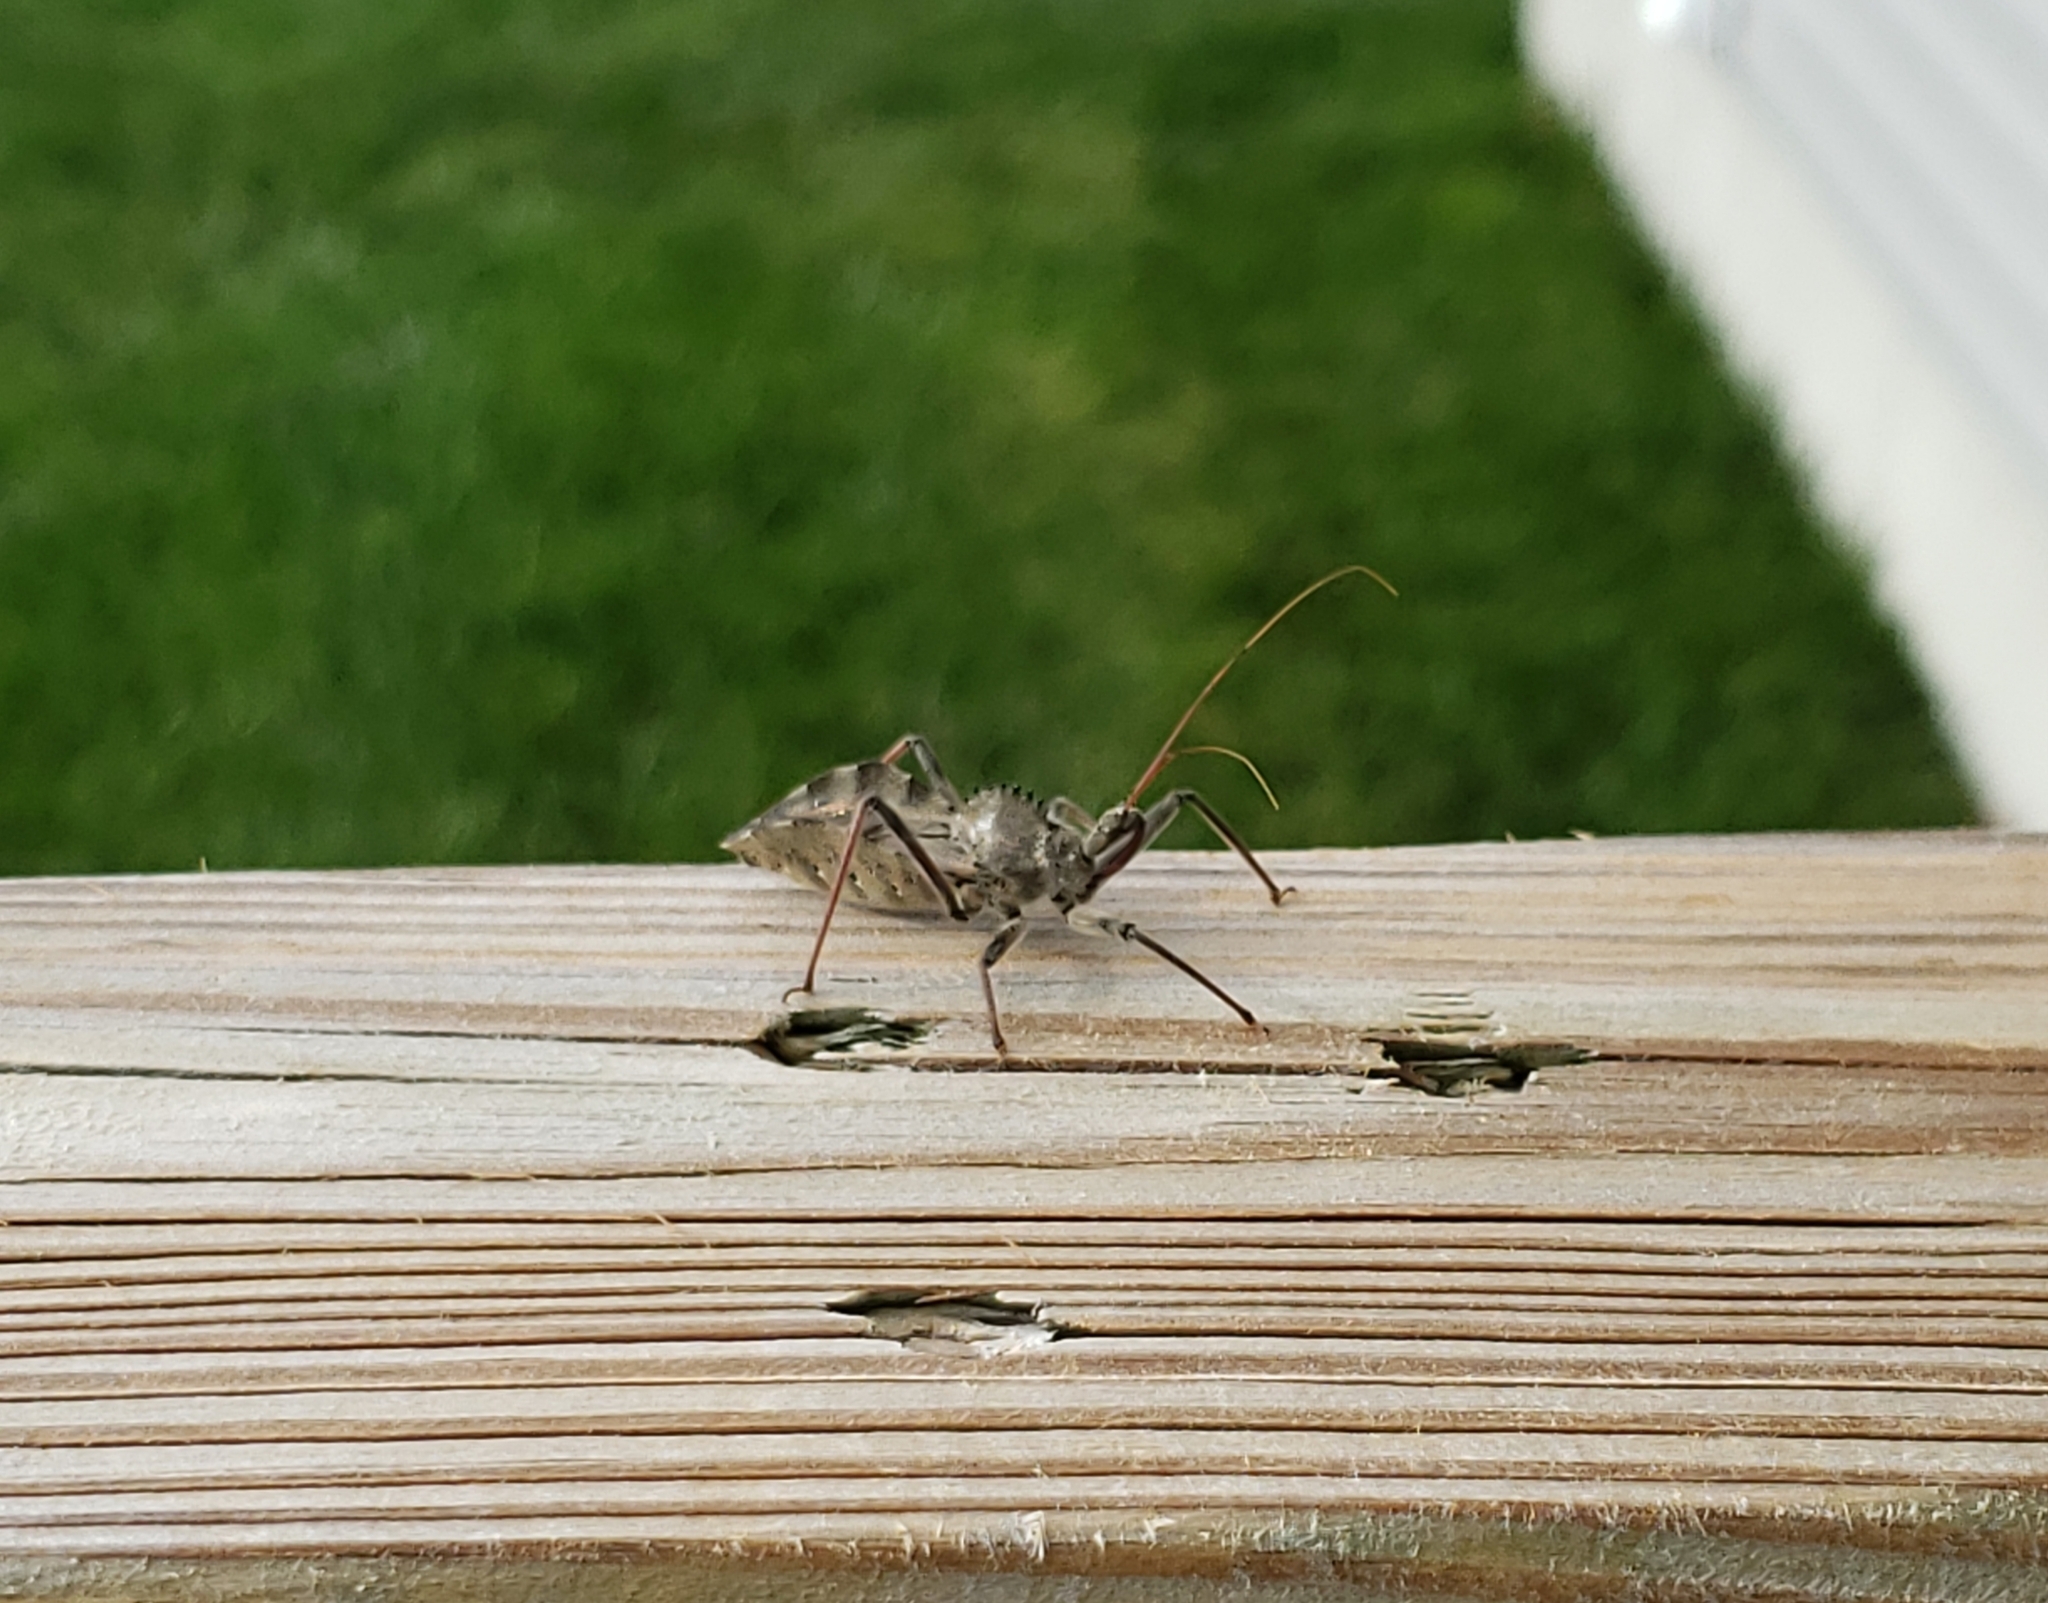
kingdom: Animalia
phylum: Arthropoda
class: Insecta
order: Hemiptera
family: Reduviidae
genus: Arilus
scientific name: Arilus cristatus
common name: North american wheel bug
